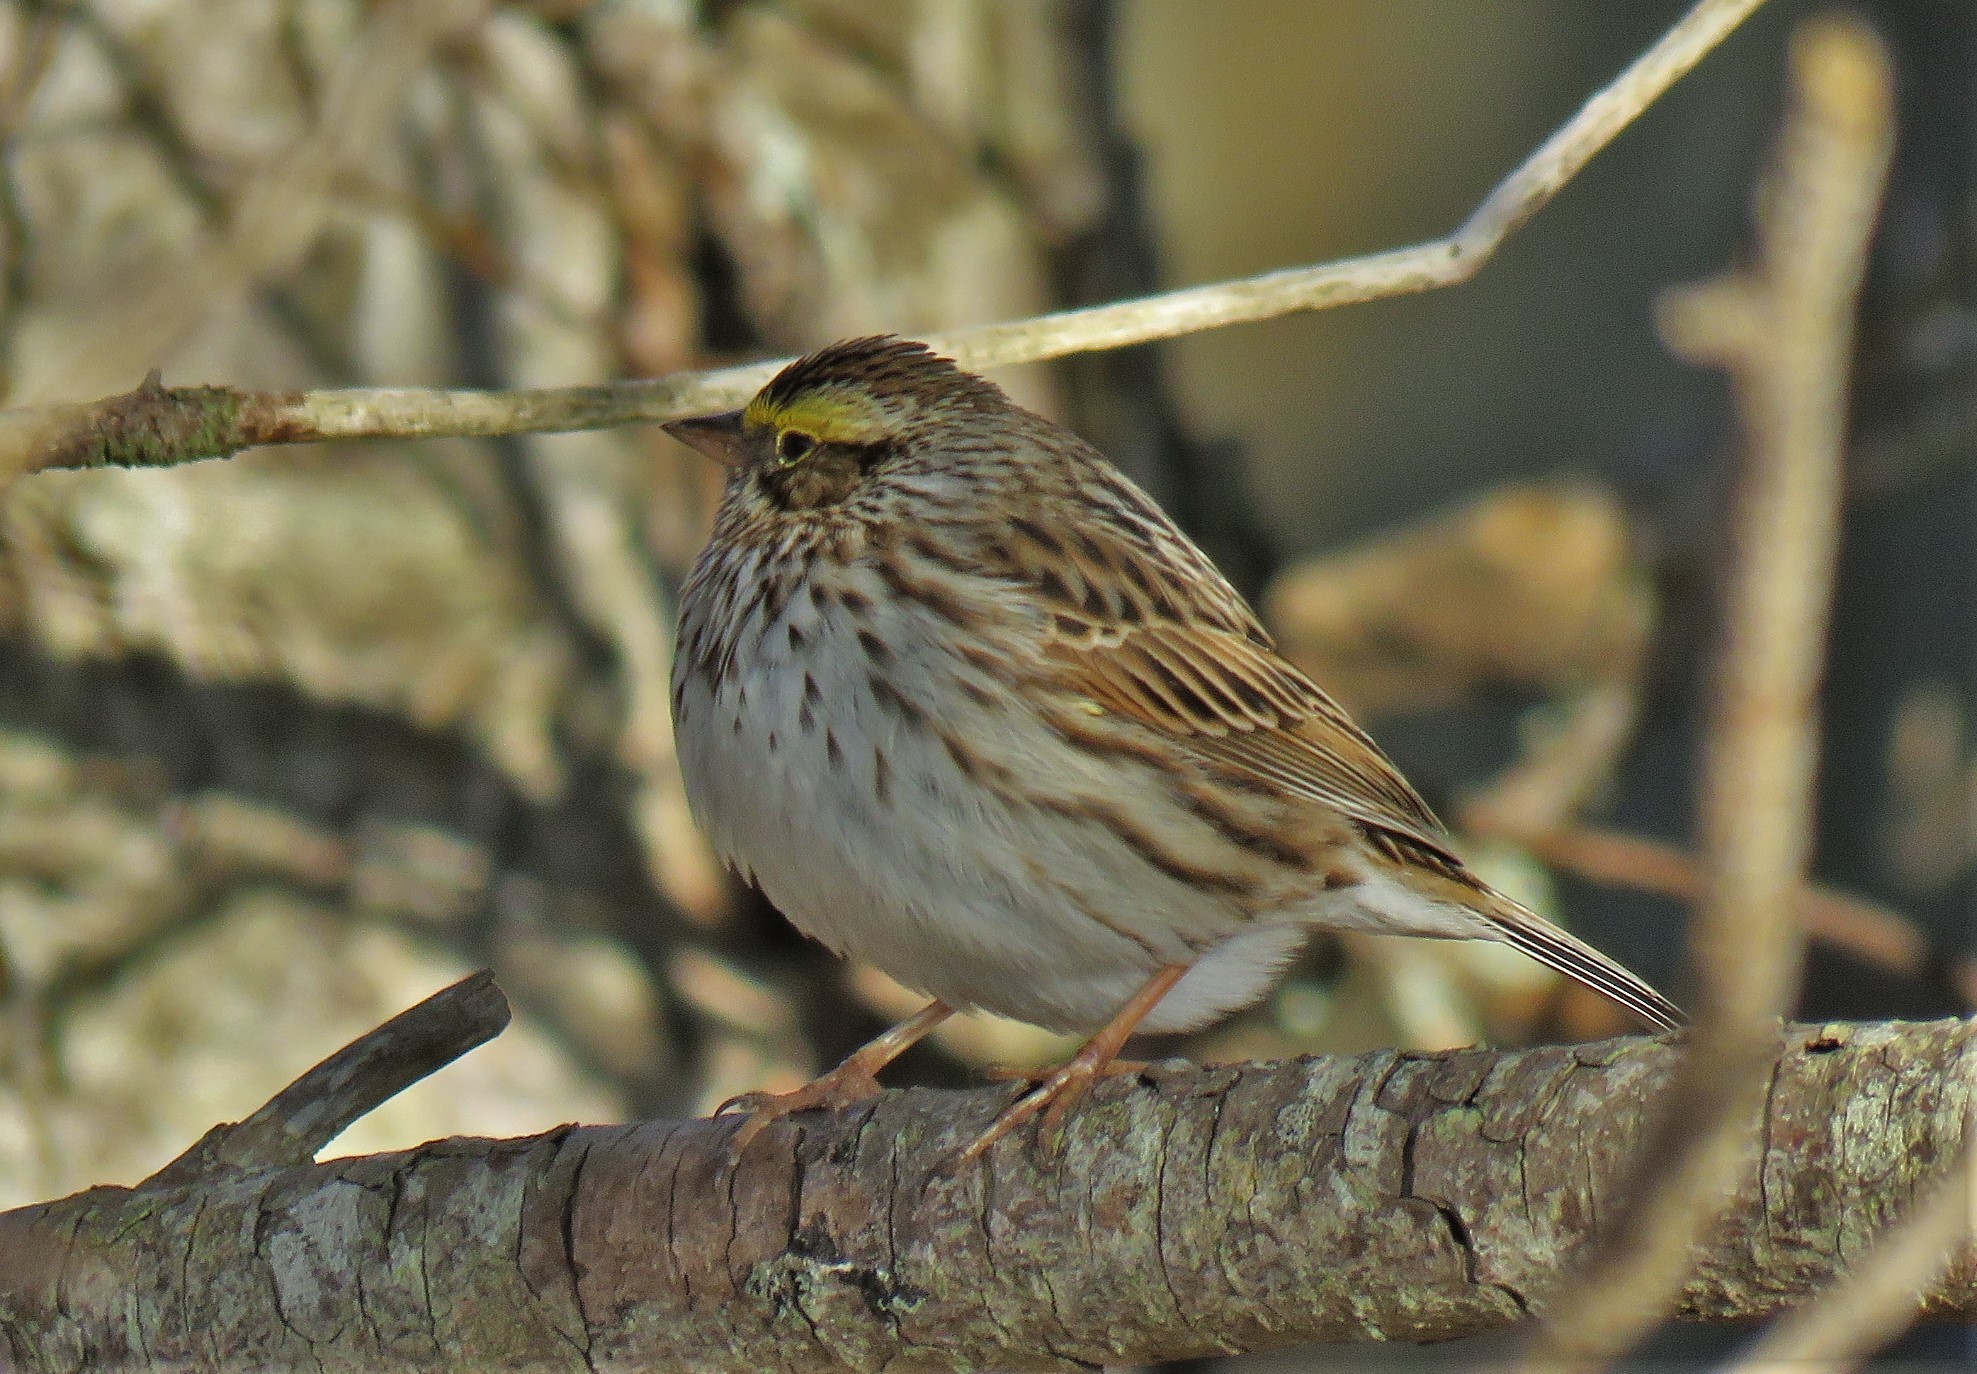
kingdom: Animalia
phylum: Chordata
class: Aves
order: Passeriformes
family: Passerellidae
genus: Passerculus
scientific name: Passerculus sandwichensis
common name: Savannah sparrow
